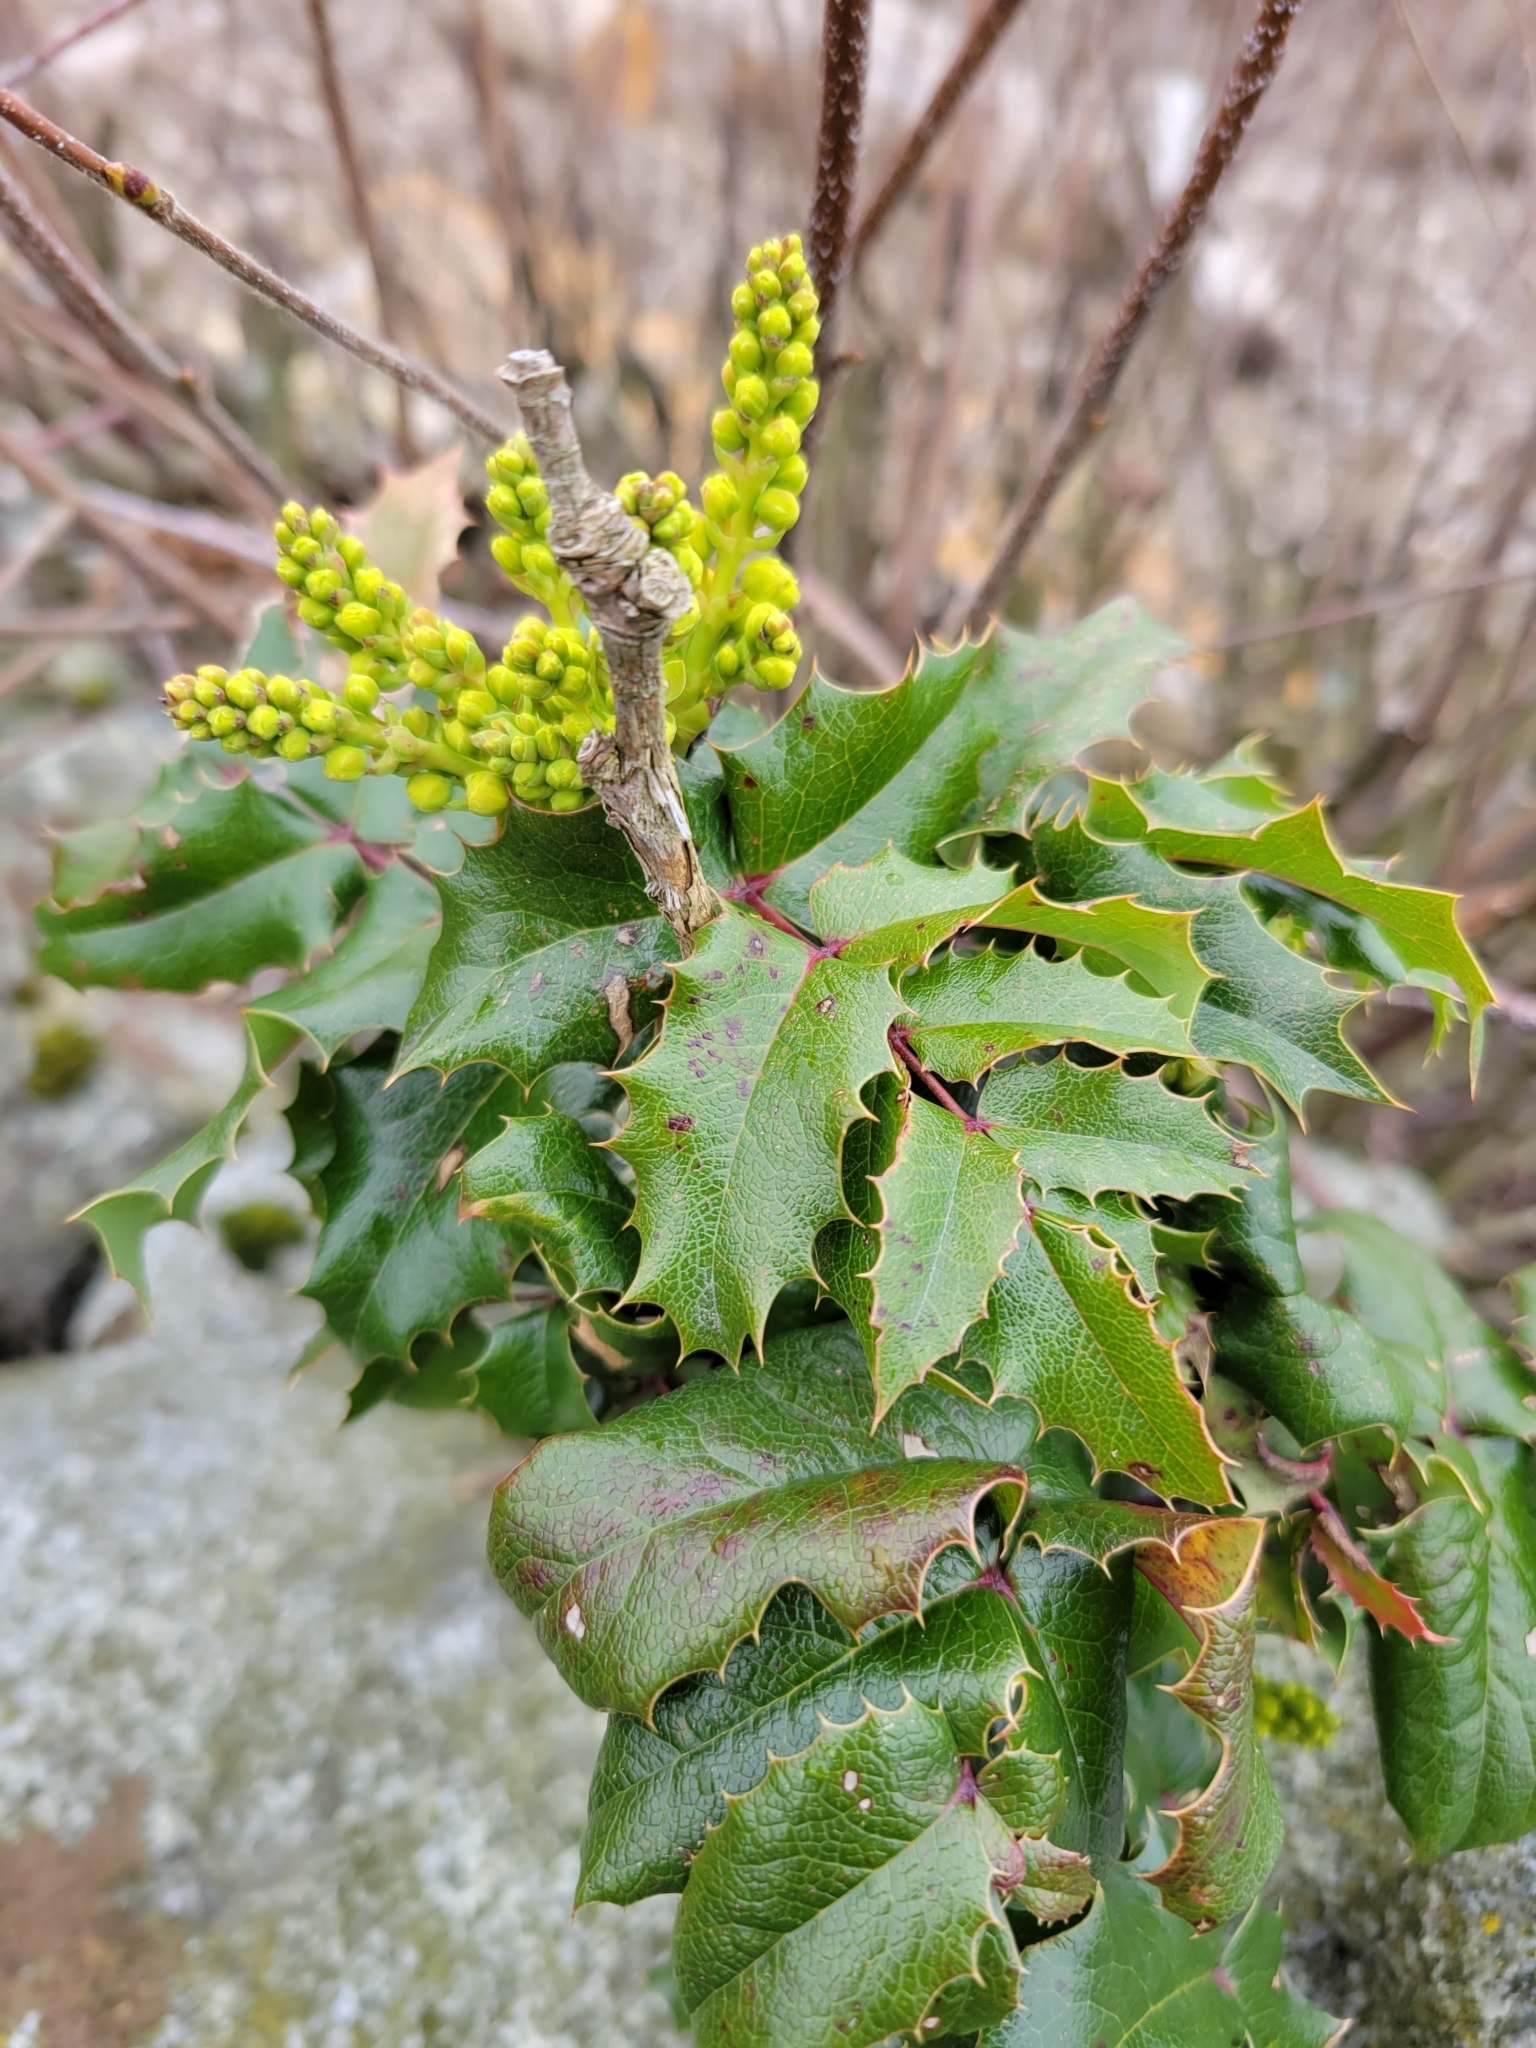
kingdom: Plantae
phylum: Tracheophyta
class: Magnoliopsida
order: Ranunculales
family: Berberidaceae
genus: Mahonia
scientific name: Mahonia aquifolium
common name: Oregon-grape
